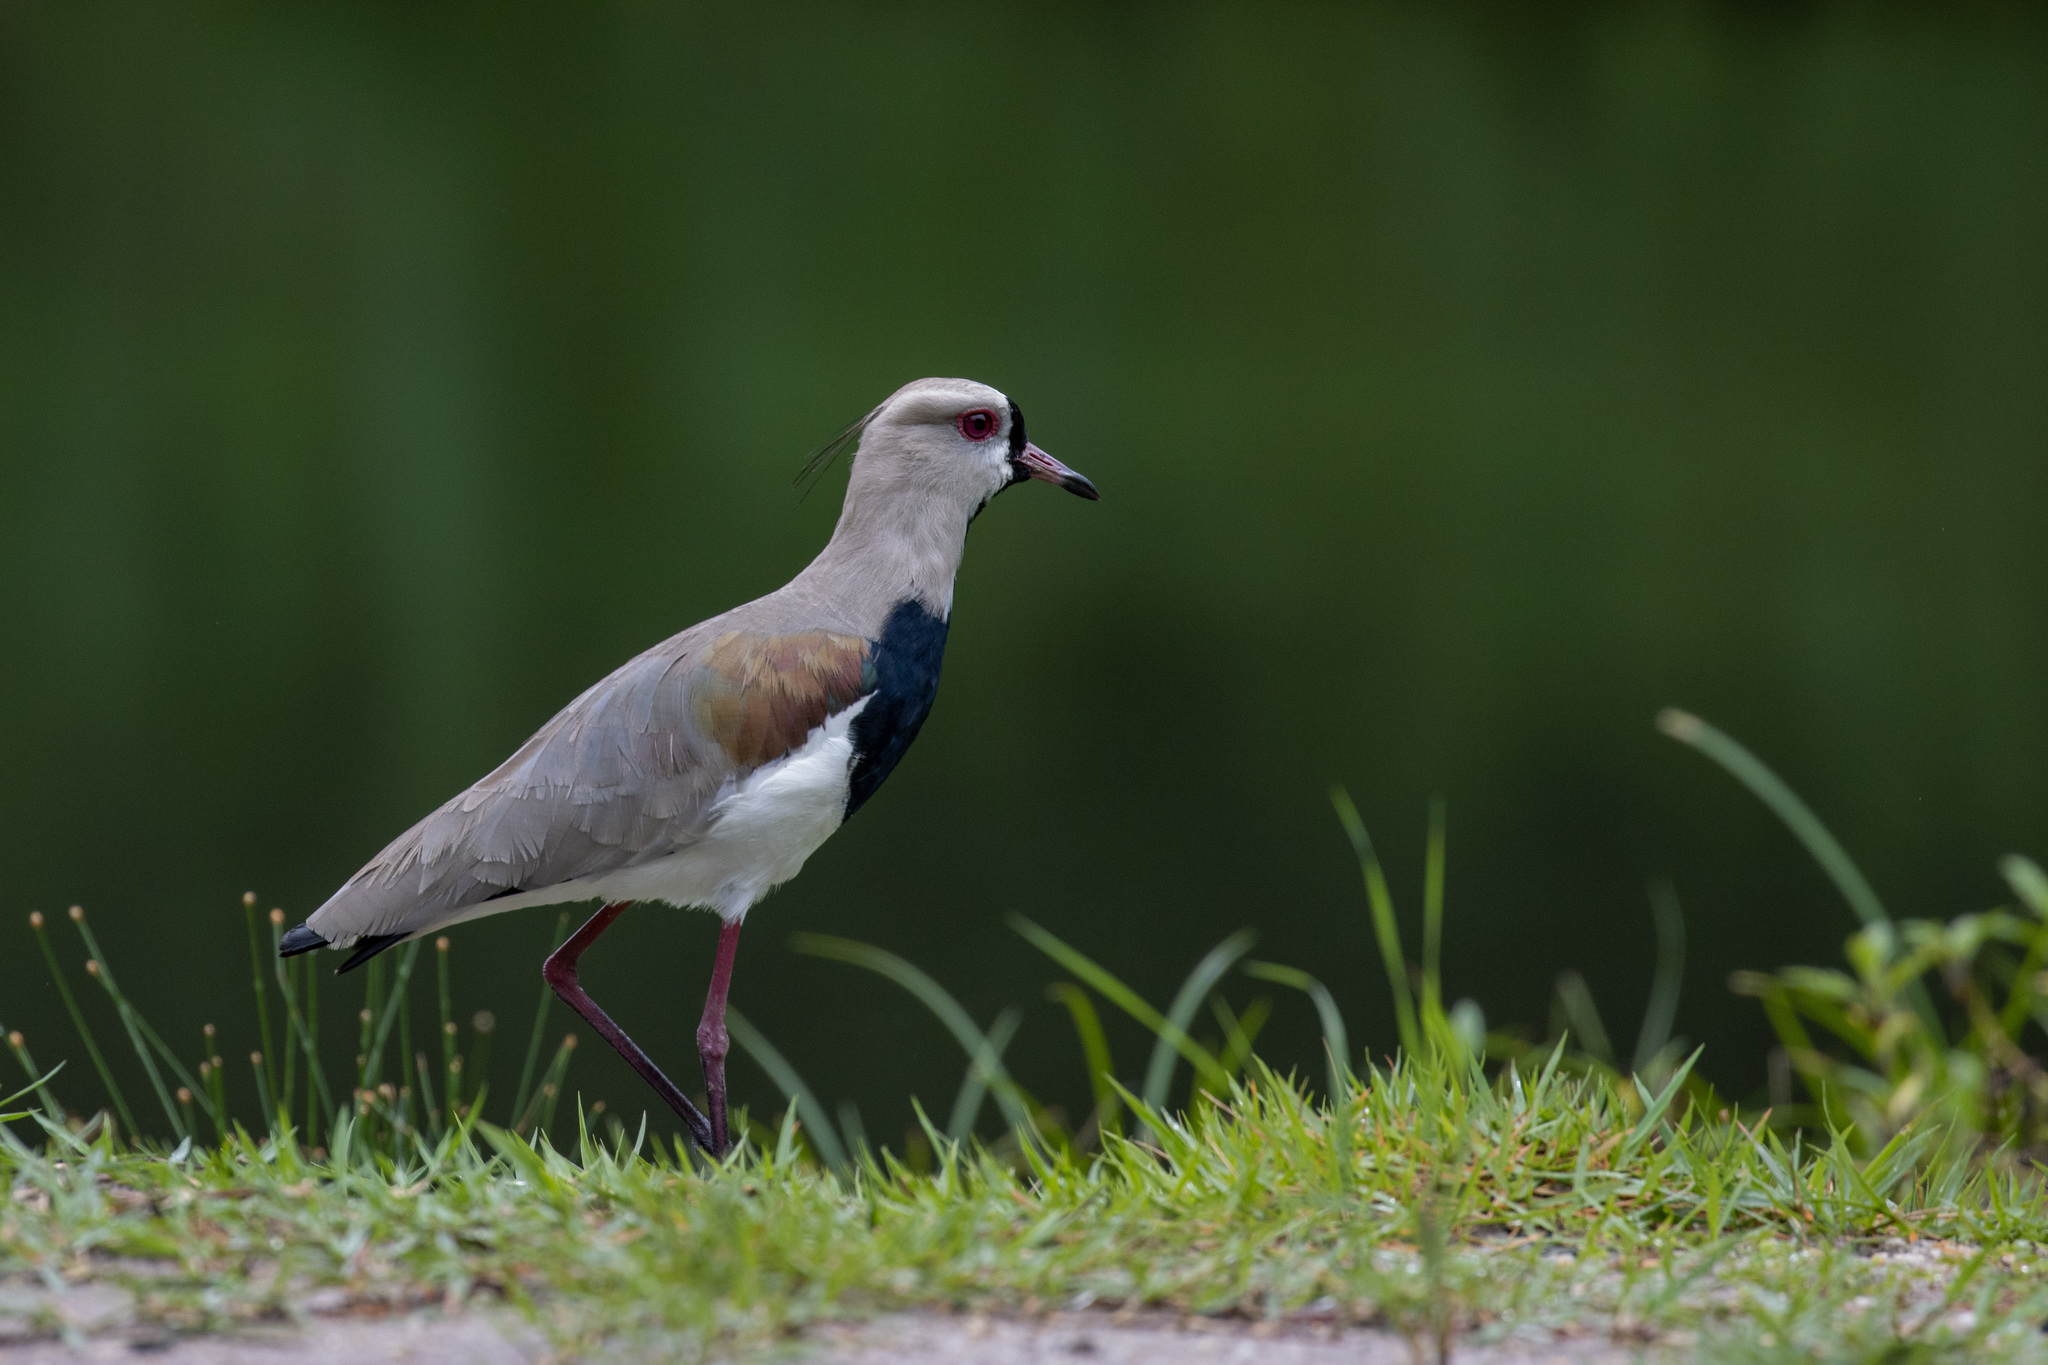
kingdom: Animalia
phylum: Chordata
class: Aves
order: Charadriiformes
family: Charadriidae
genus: Vanellus
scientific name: Vanellus chilensis
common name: Southern lapwing
